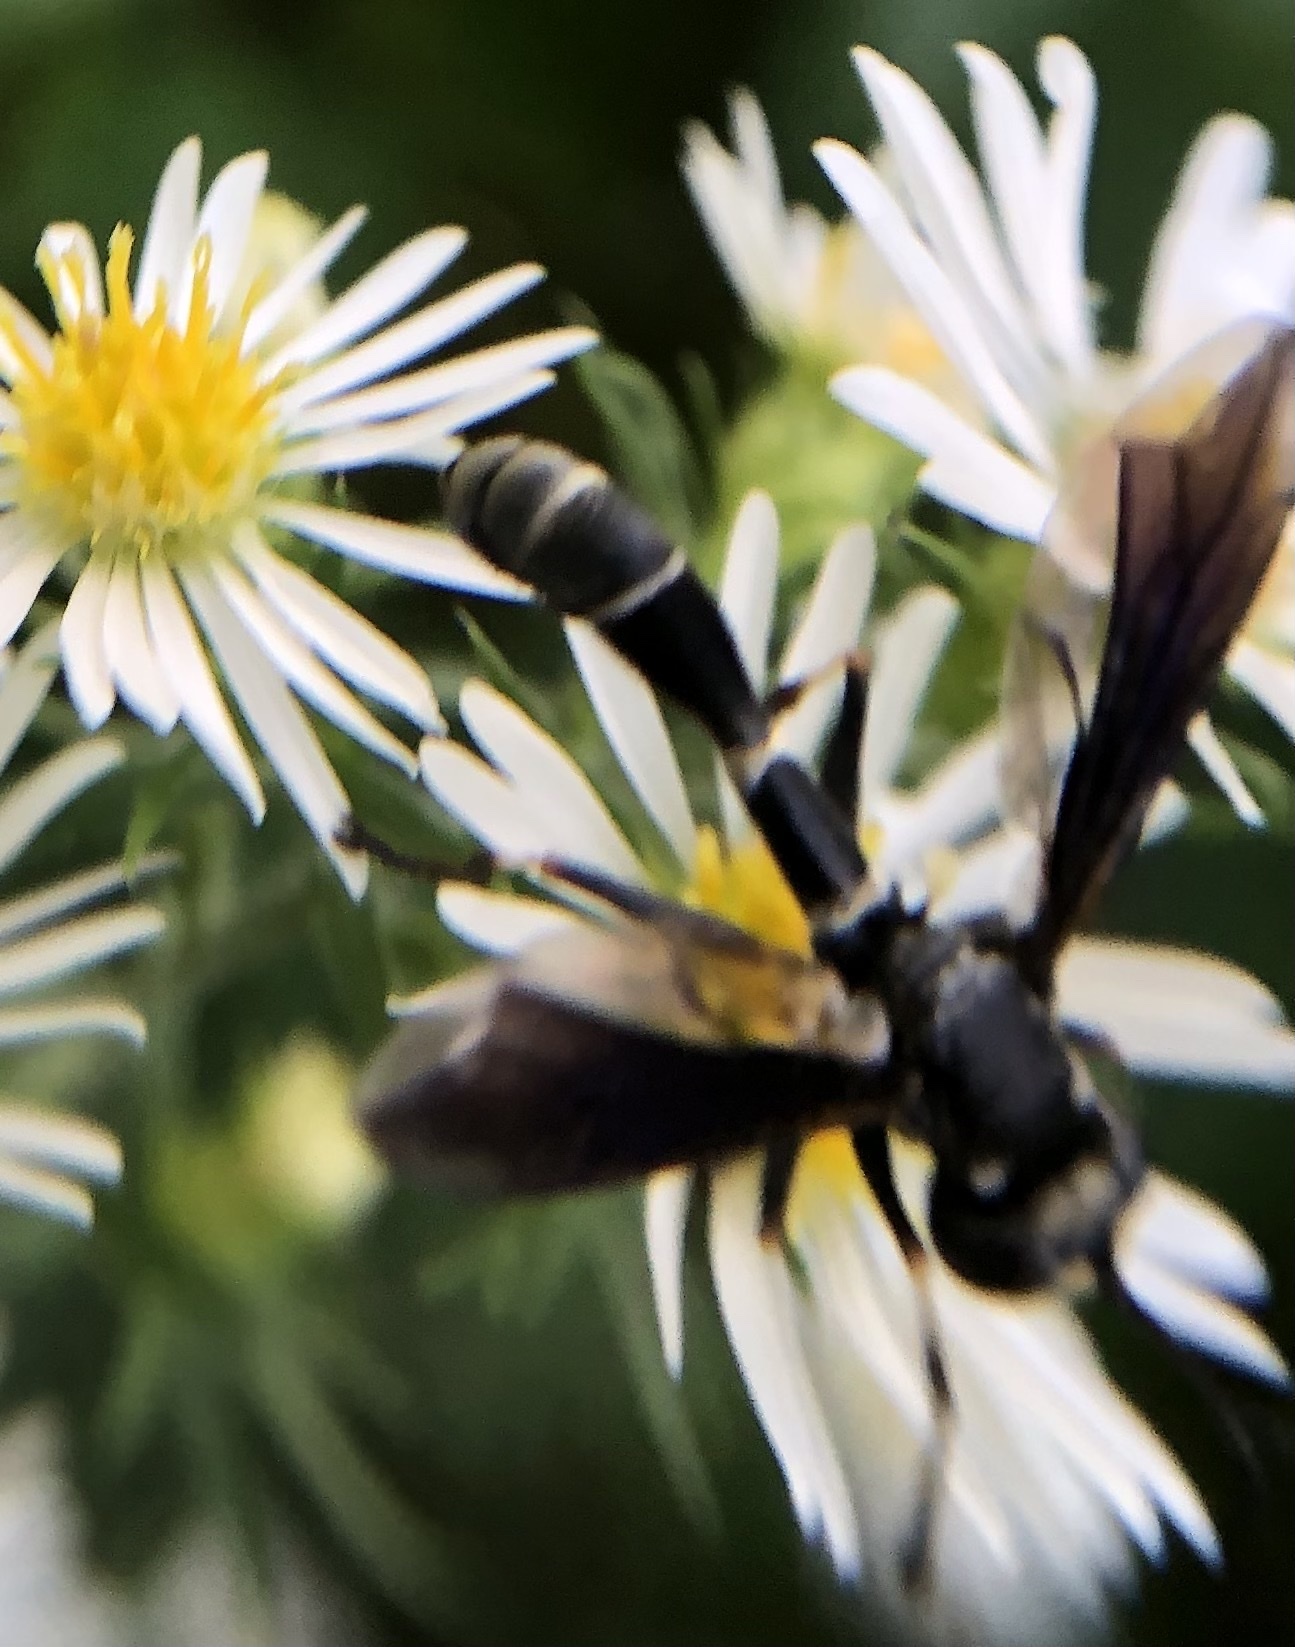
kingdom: Animalia
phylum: Arthropoda
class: Insecta
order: Diptera
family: Conopidae
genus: Physocephala
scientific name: Physocephala tibialis
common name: Common eastern physocephala
